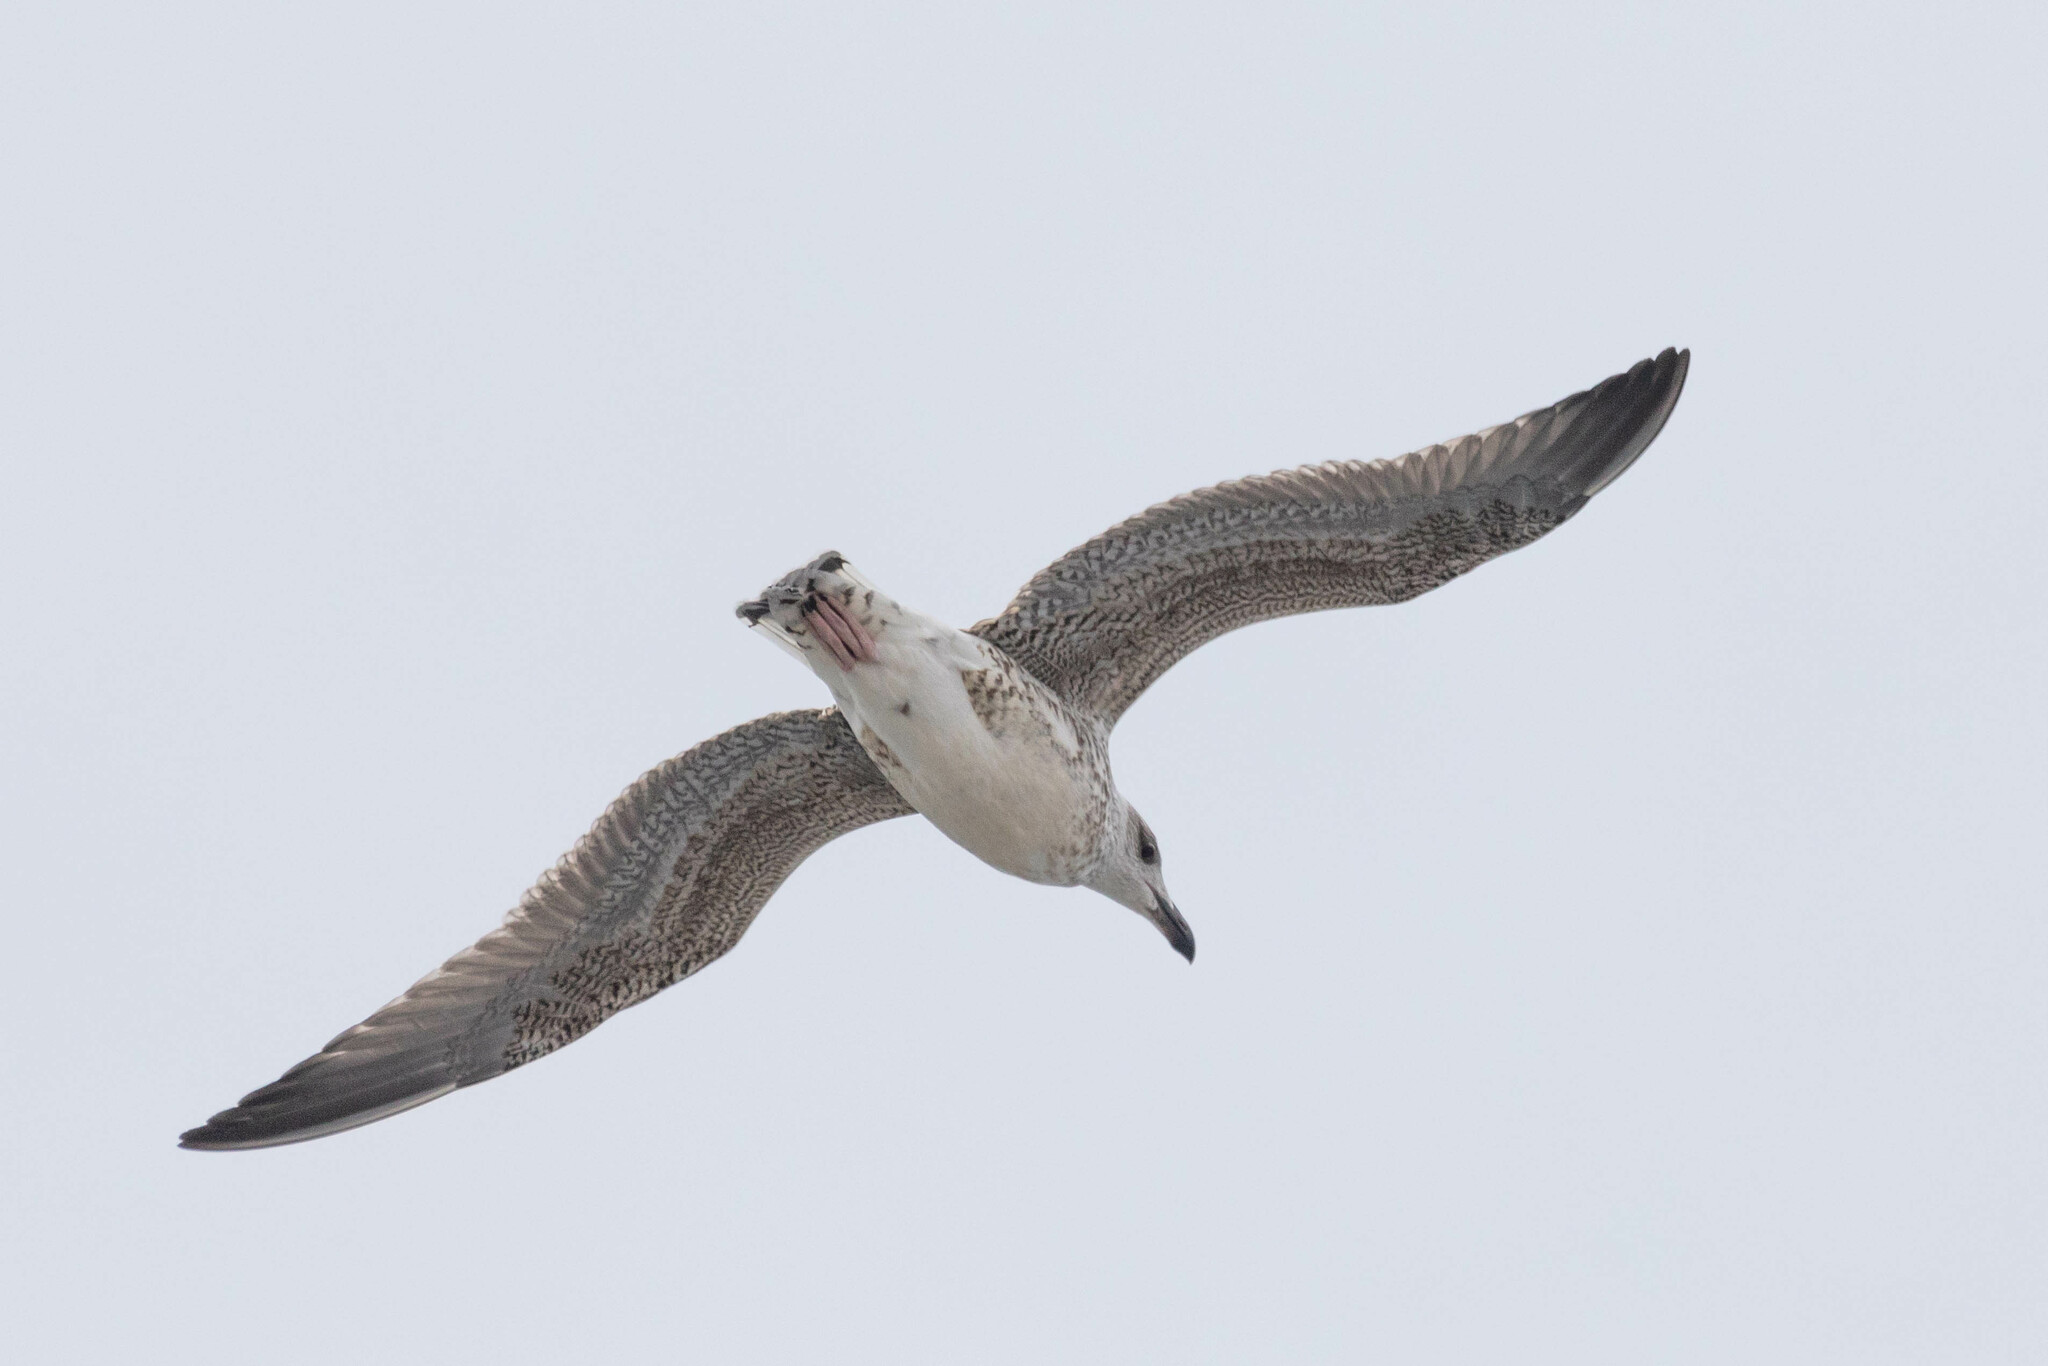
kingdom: Animalia
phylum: Chordata
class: Aves
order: Charadriiformes
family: Laridae
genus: Larus
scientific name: Larus marinus
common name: Great black-backed gull
